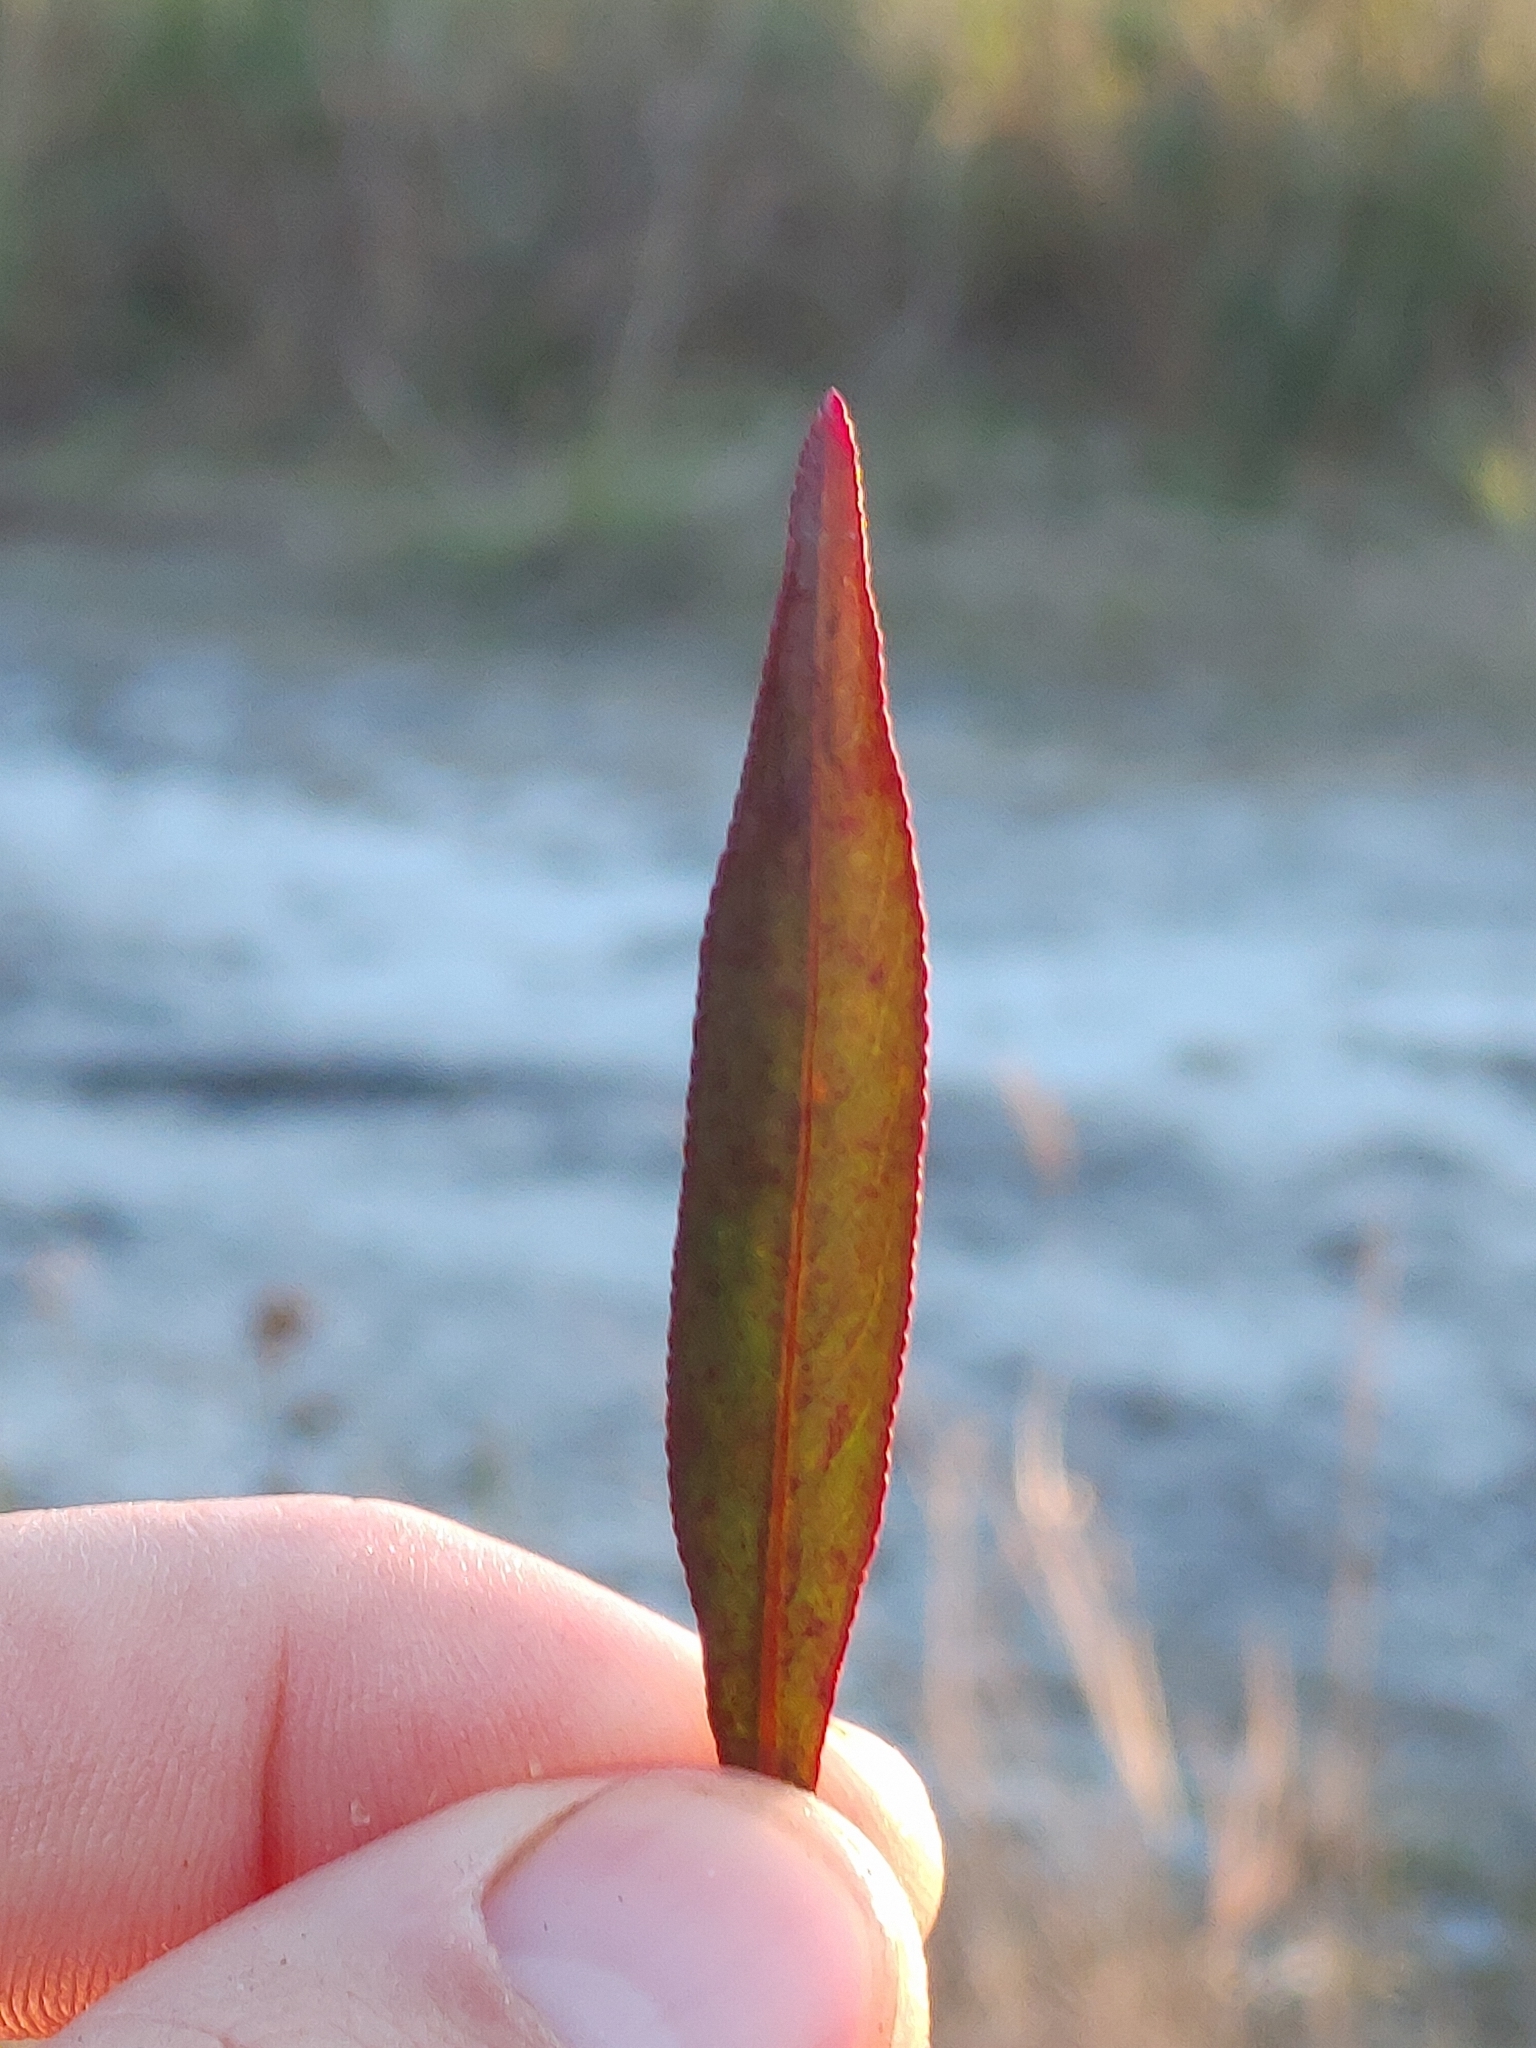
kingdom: Plantae
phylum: Tracheophyta
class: Magnoliopsida
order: Malpighiales
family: Euphorbiaceae
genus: Stillingia
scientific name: Stillingia aquatica
